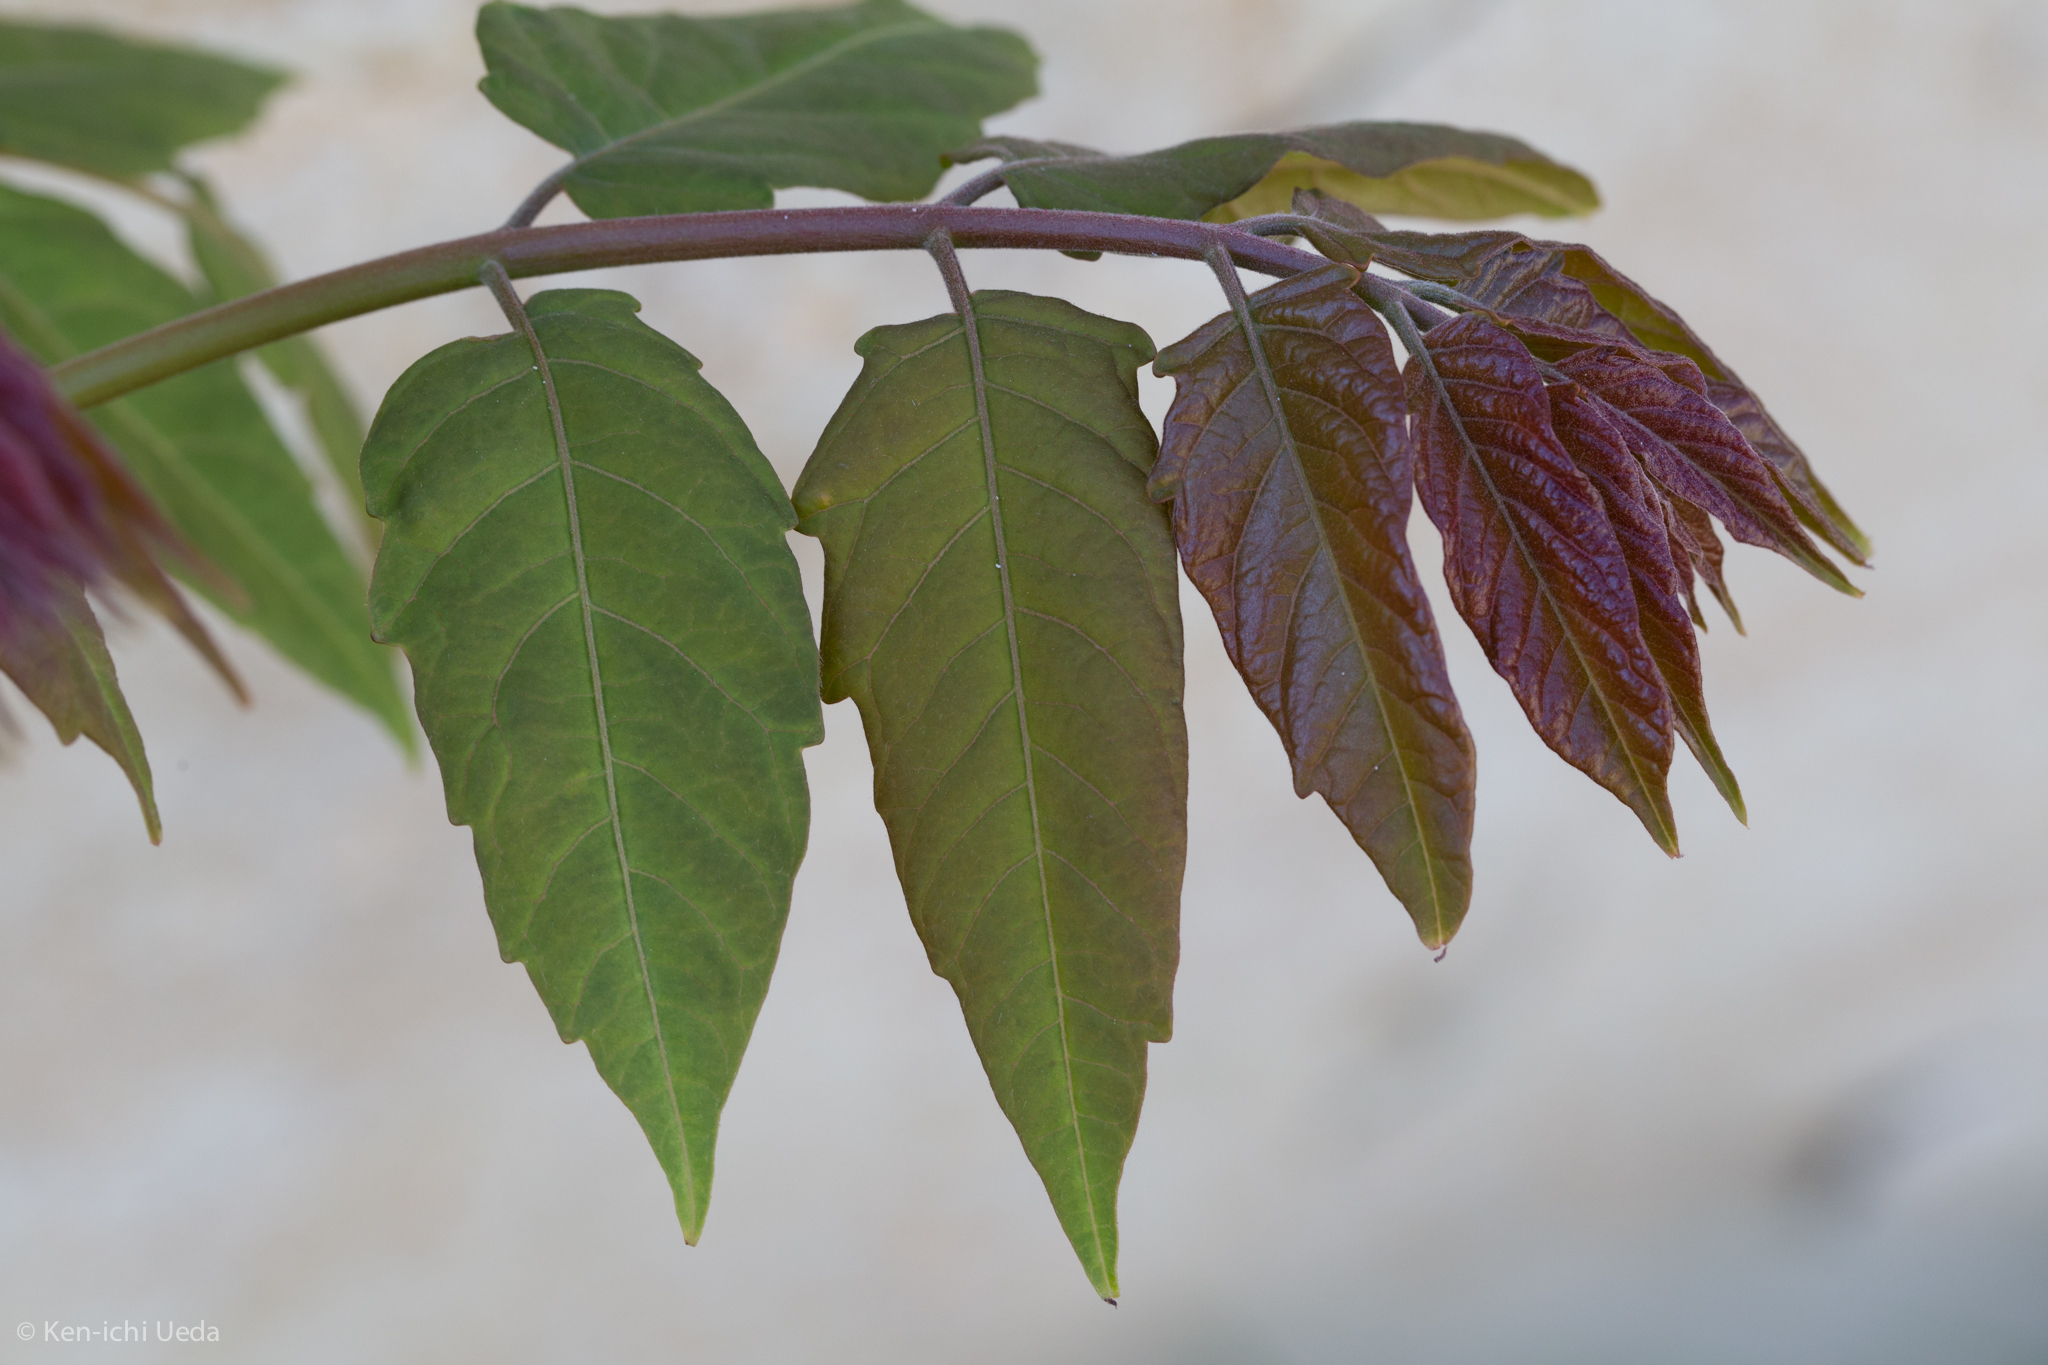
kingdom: Plantae
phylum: Tracheophyta
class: Magnoliopsida
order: Sapindales
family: Simaroubaceae
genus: Ailanthus
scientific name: Ailanthus altissima
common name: Tree-of-heaven
